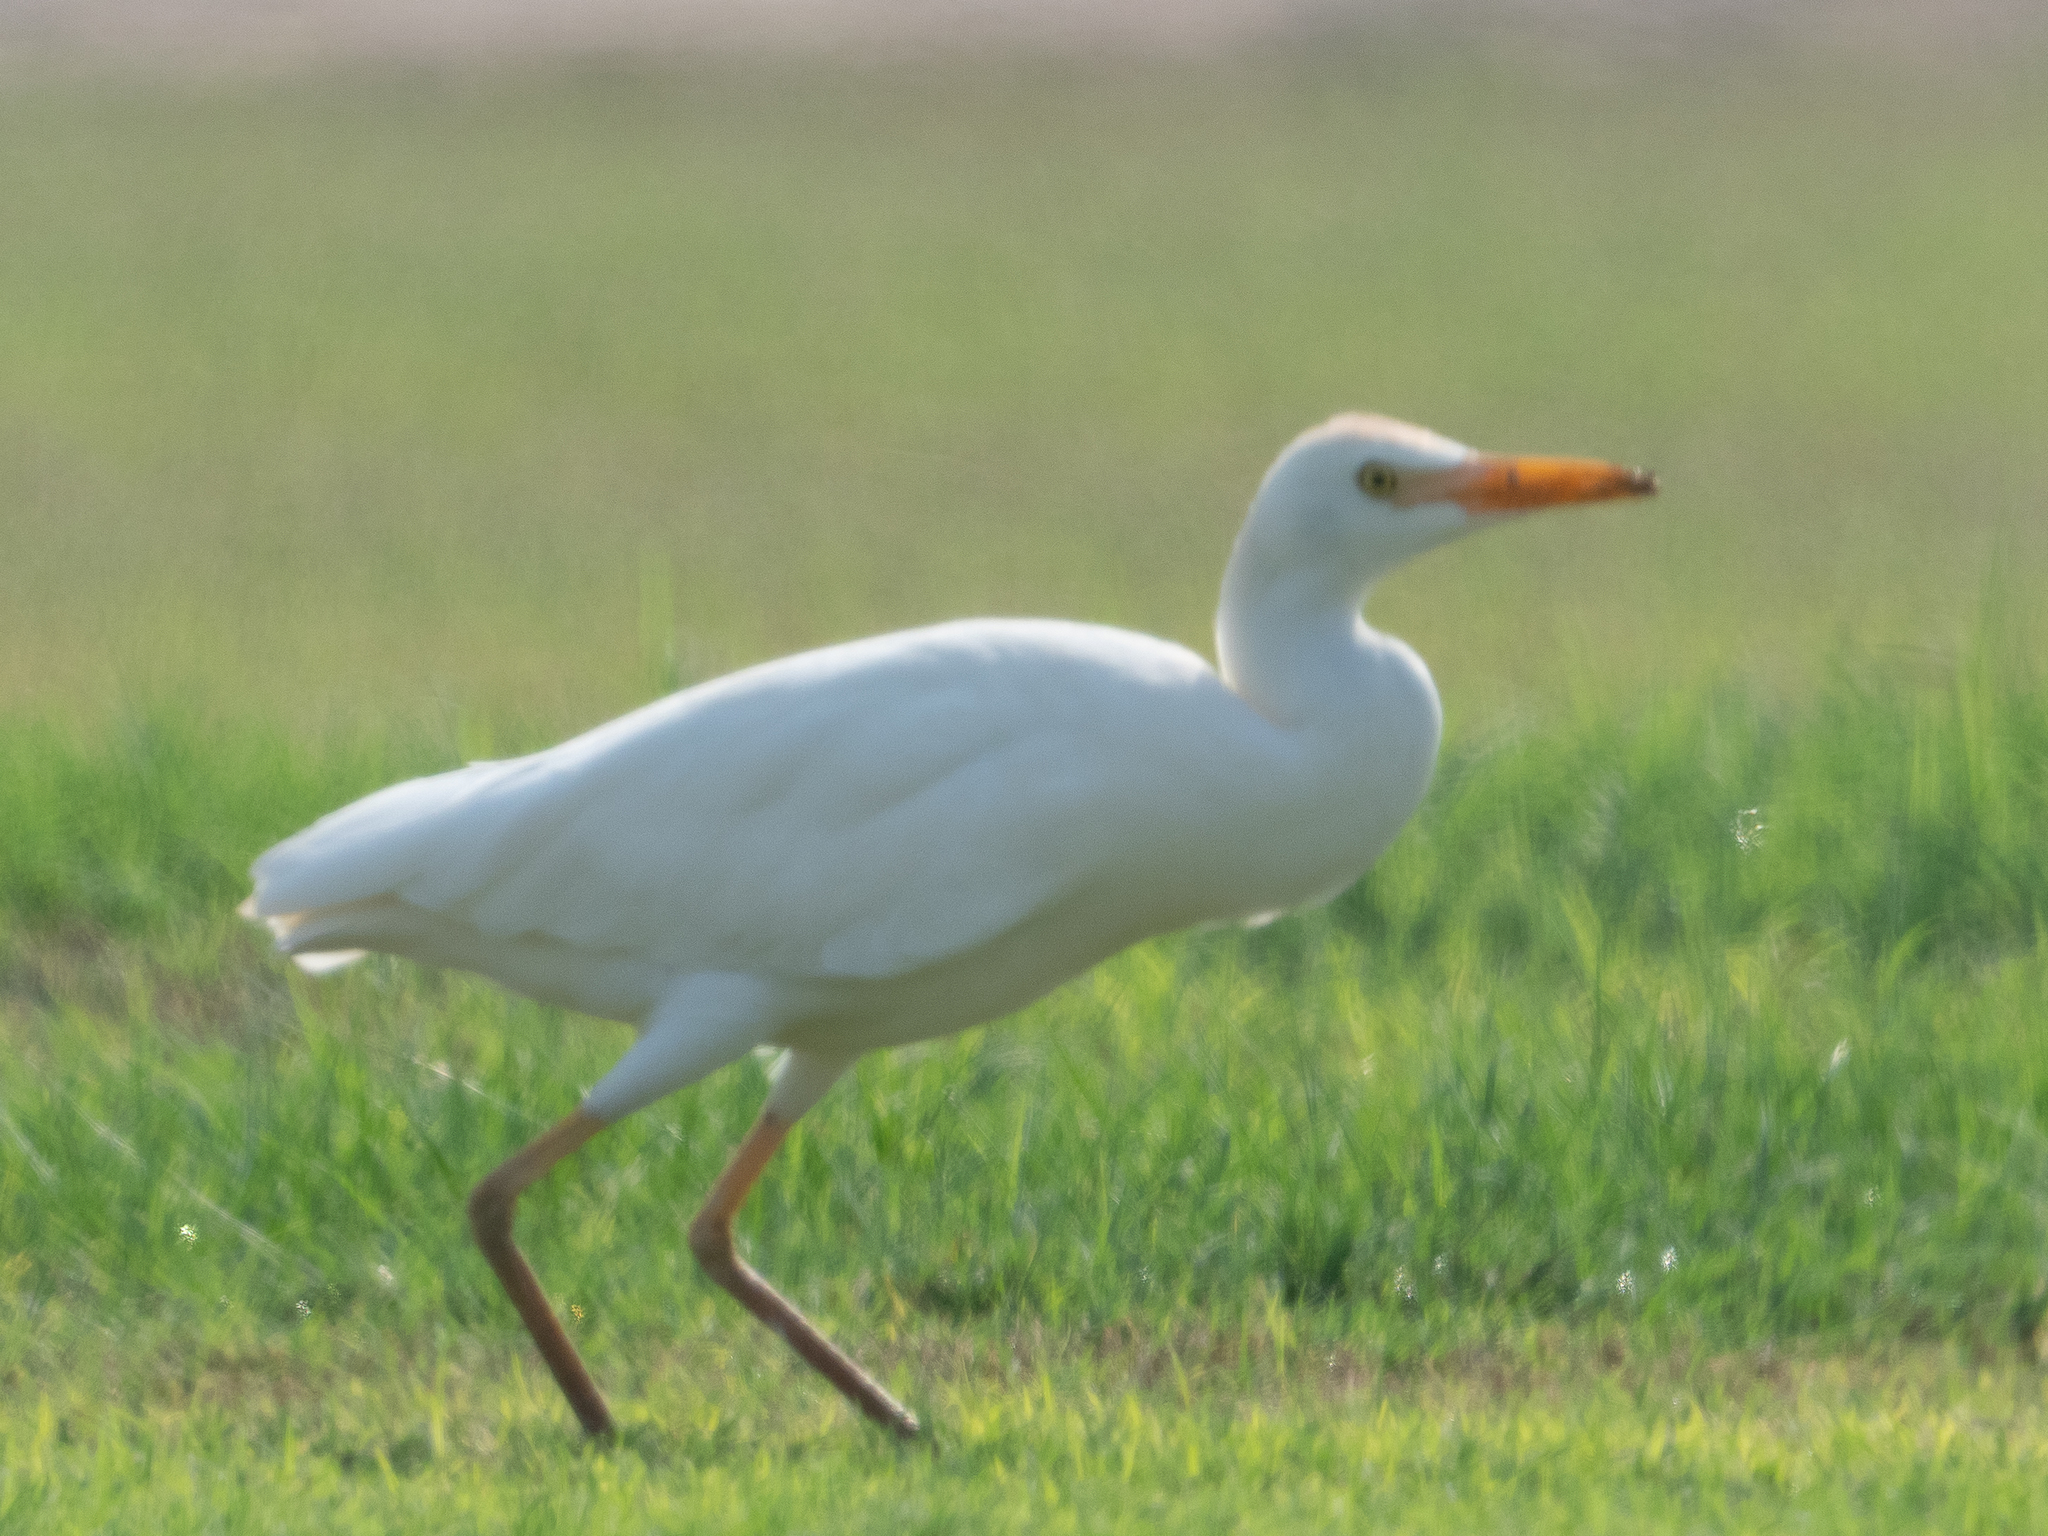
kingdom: Animalia
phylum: Chordata
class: Aves
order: Pelecaniformes
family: Ardeidae
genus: Bubulcus
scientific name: Bubulcus ibis
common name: Cattle egret
